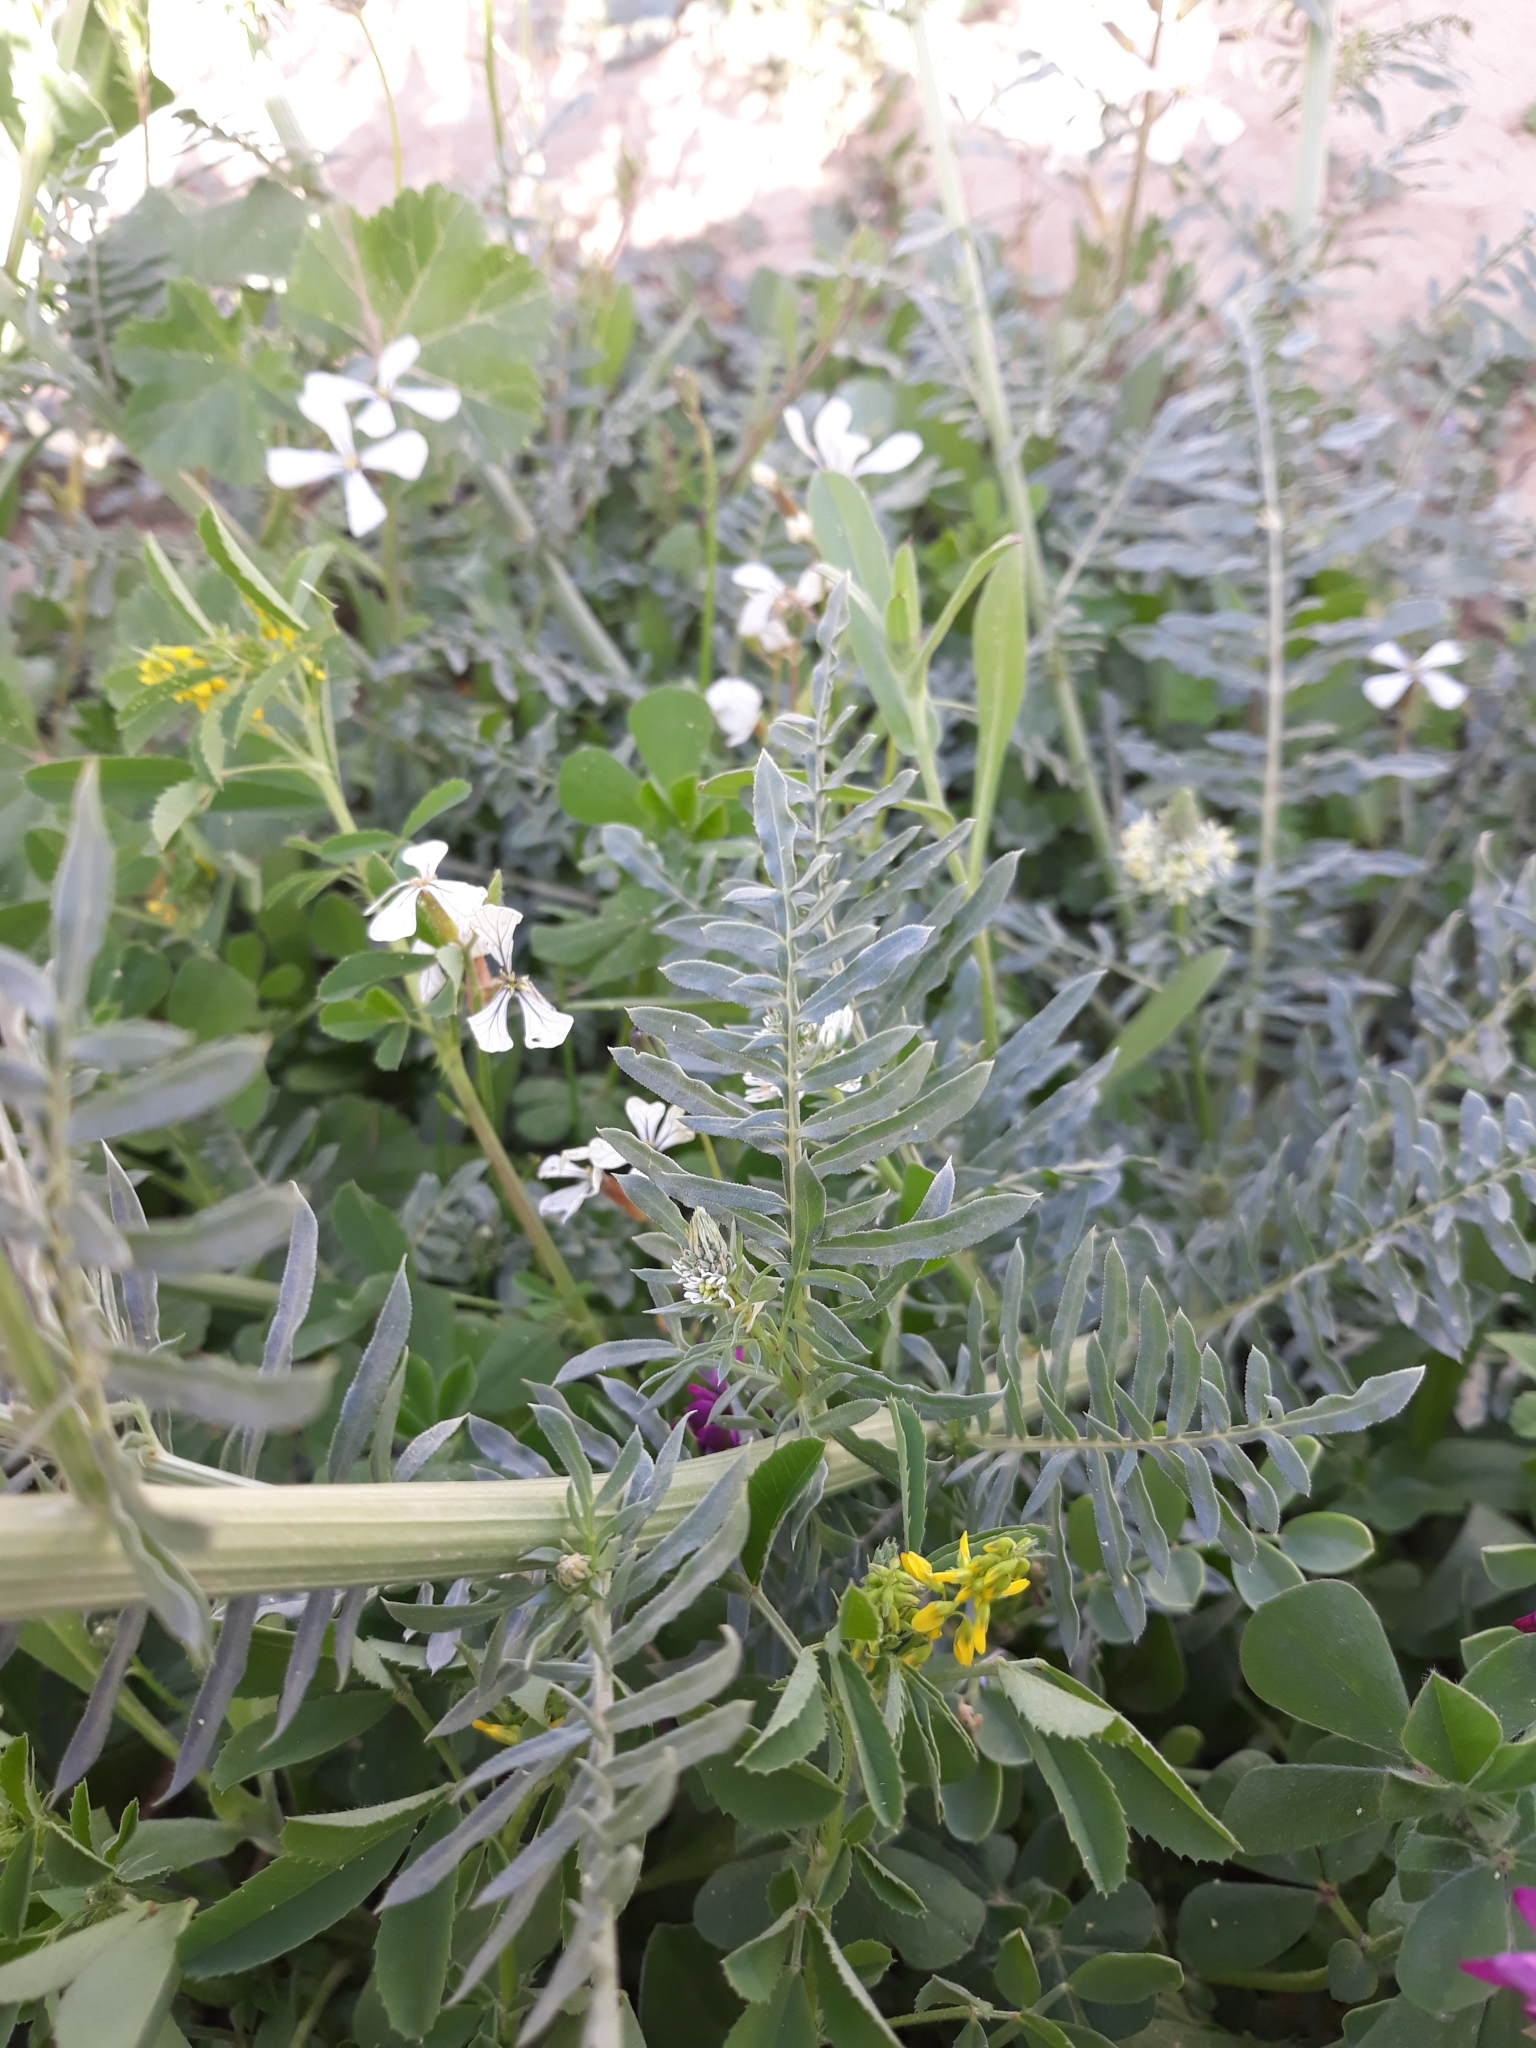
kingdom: Plantae
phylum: Tracheophyta
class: Magnoliopsida
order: Brassicales
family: Resedaceae
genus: Reseda
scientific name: Reseda alba
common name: White mignonette
